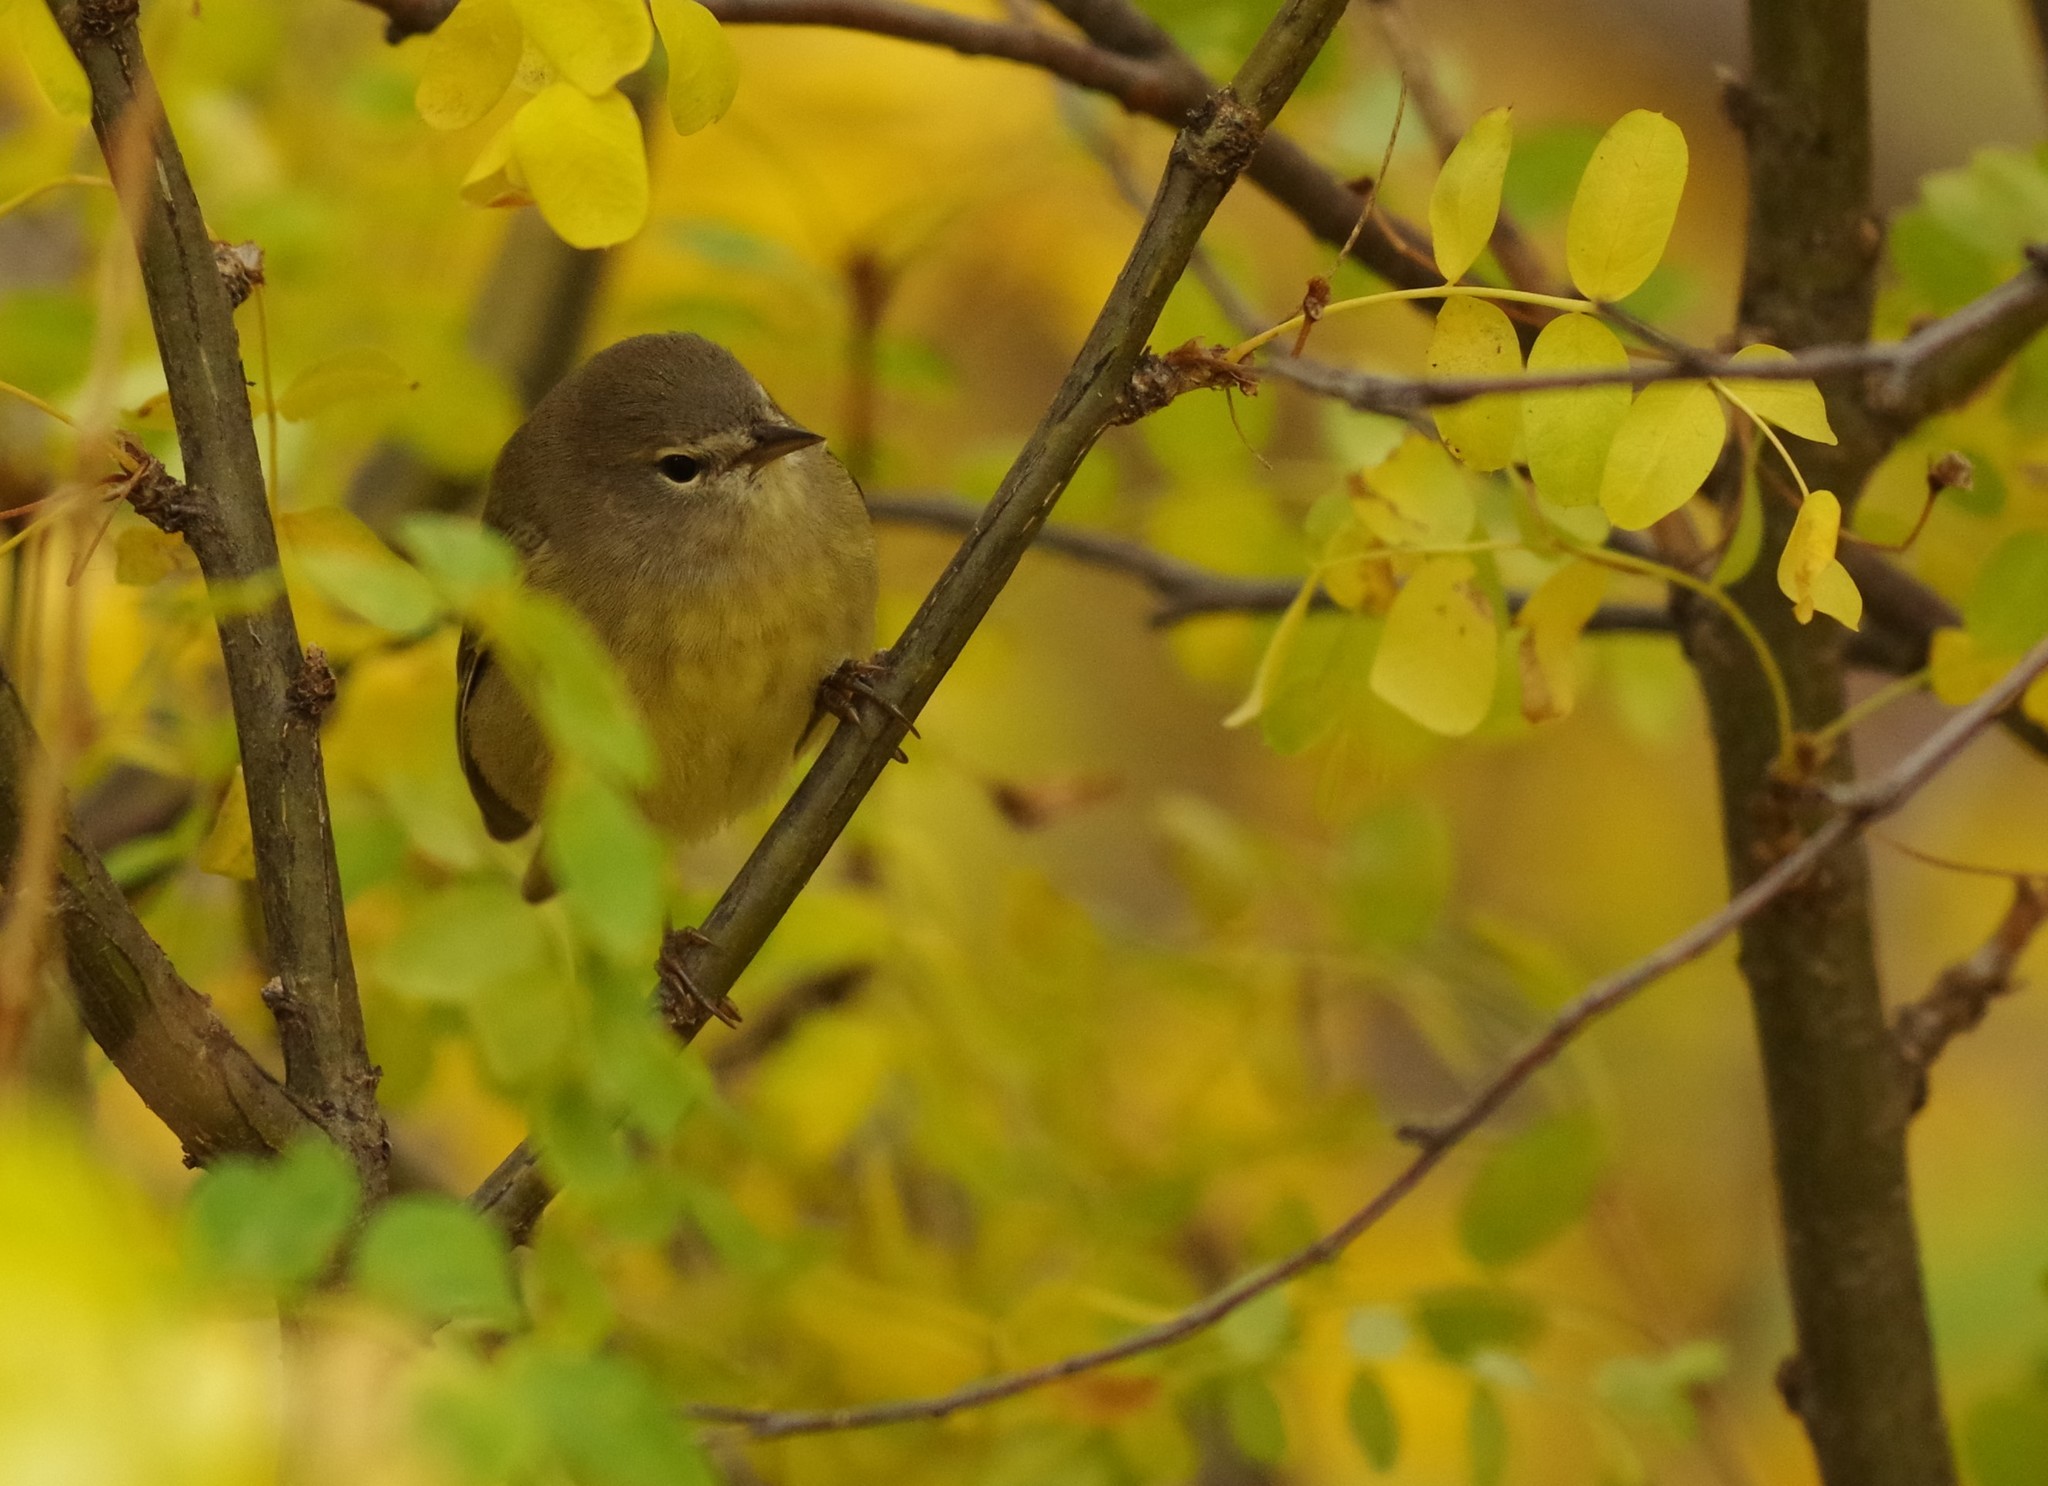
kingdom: Animalia
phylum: Chordata
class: Aves
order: Passeriformes
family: Parulidae
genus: Leiothlypis
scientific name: Leiothlypis celata
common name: Orange-crowned warbler
